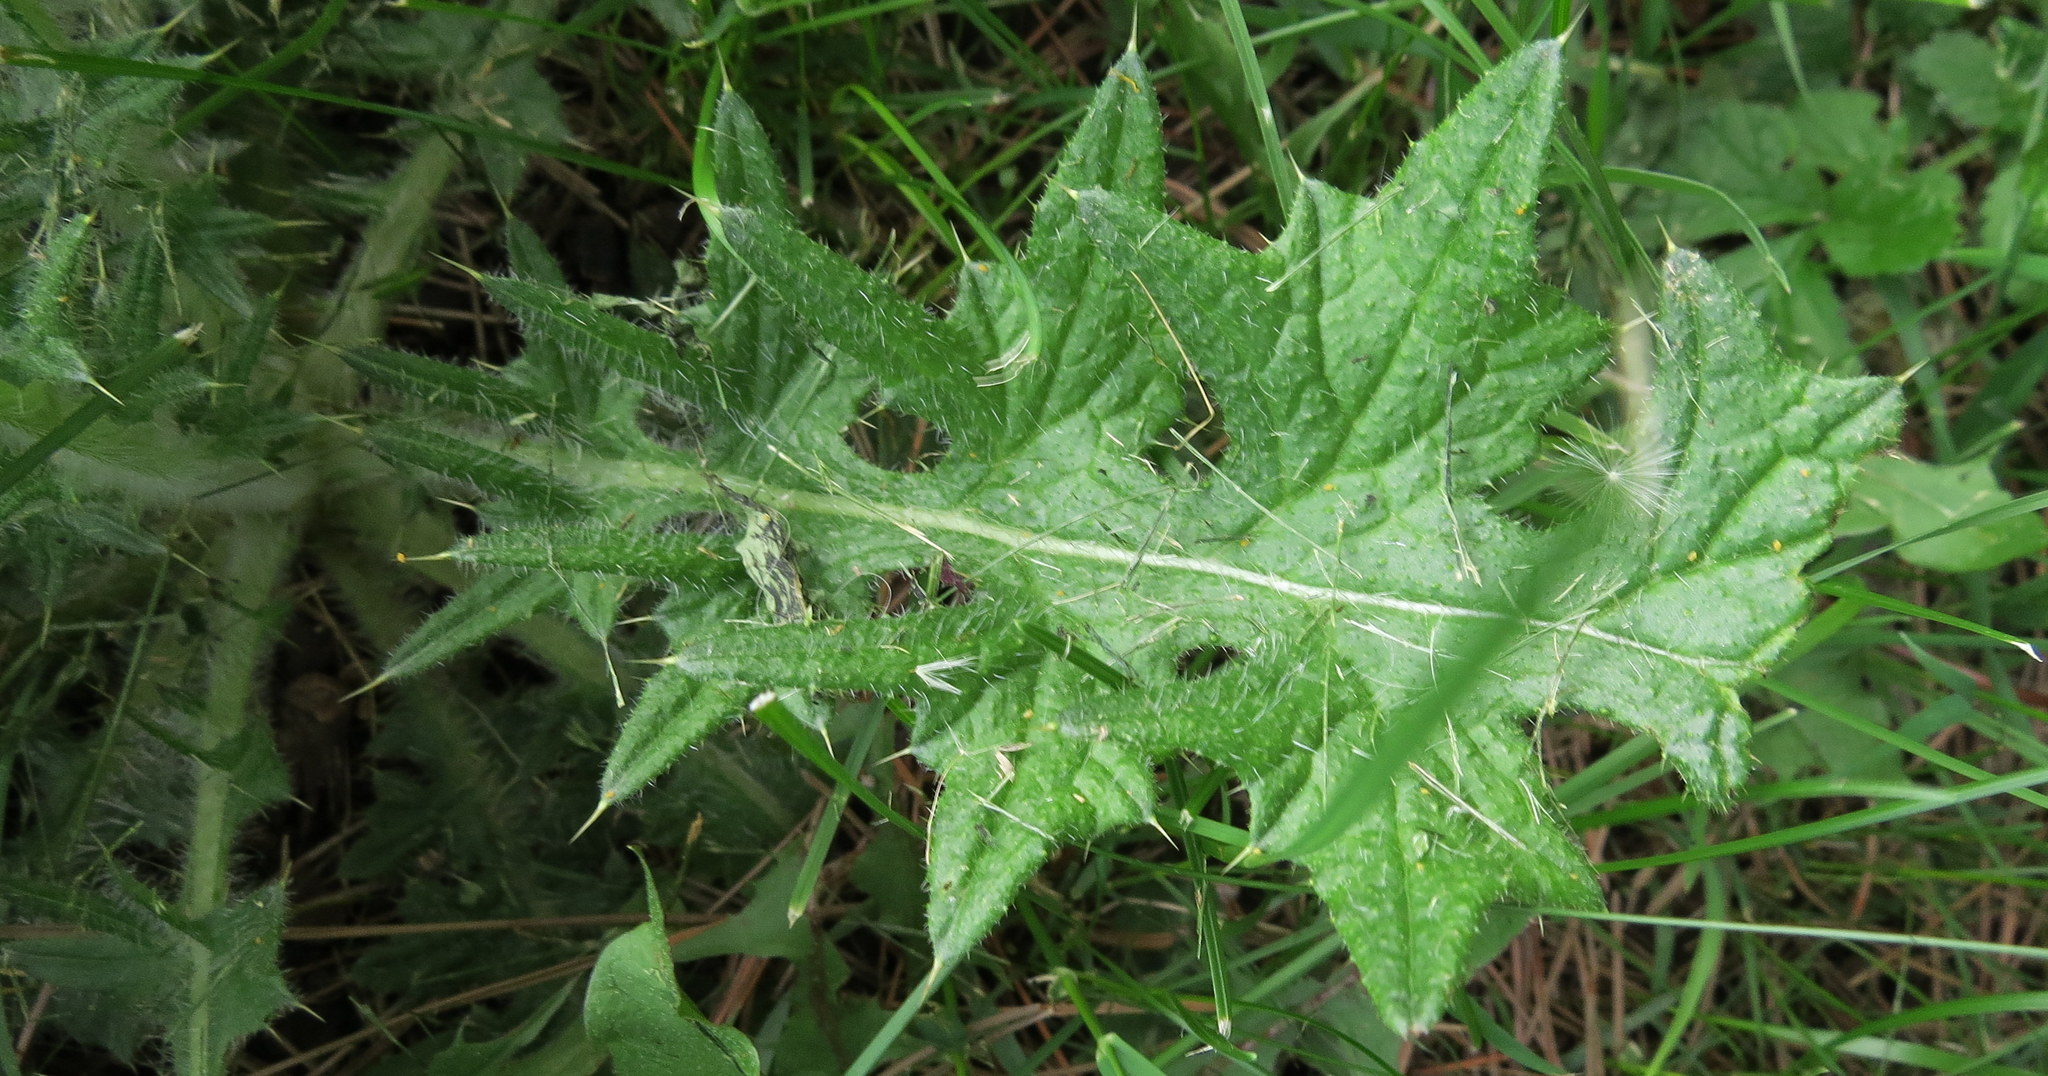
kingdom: Plantae
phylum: Tracheophyta
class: Magnoliopsida
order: Asterales
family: Asteraceae
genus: Cirsium
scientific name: Cirsium vulgare
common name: Bull thistle
